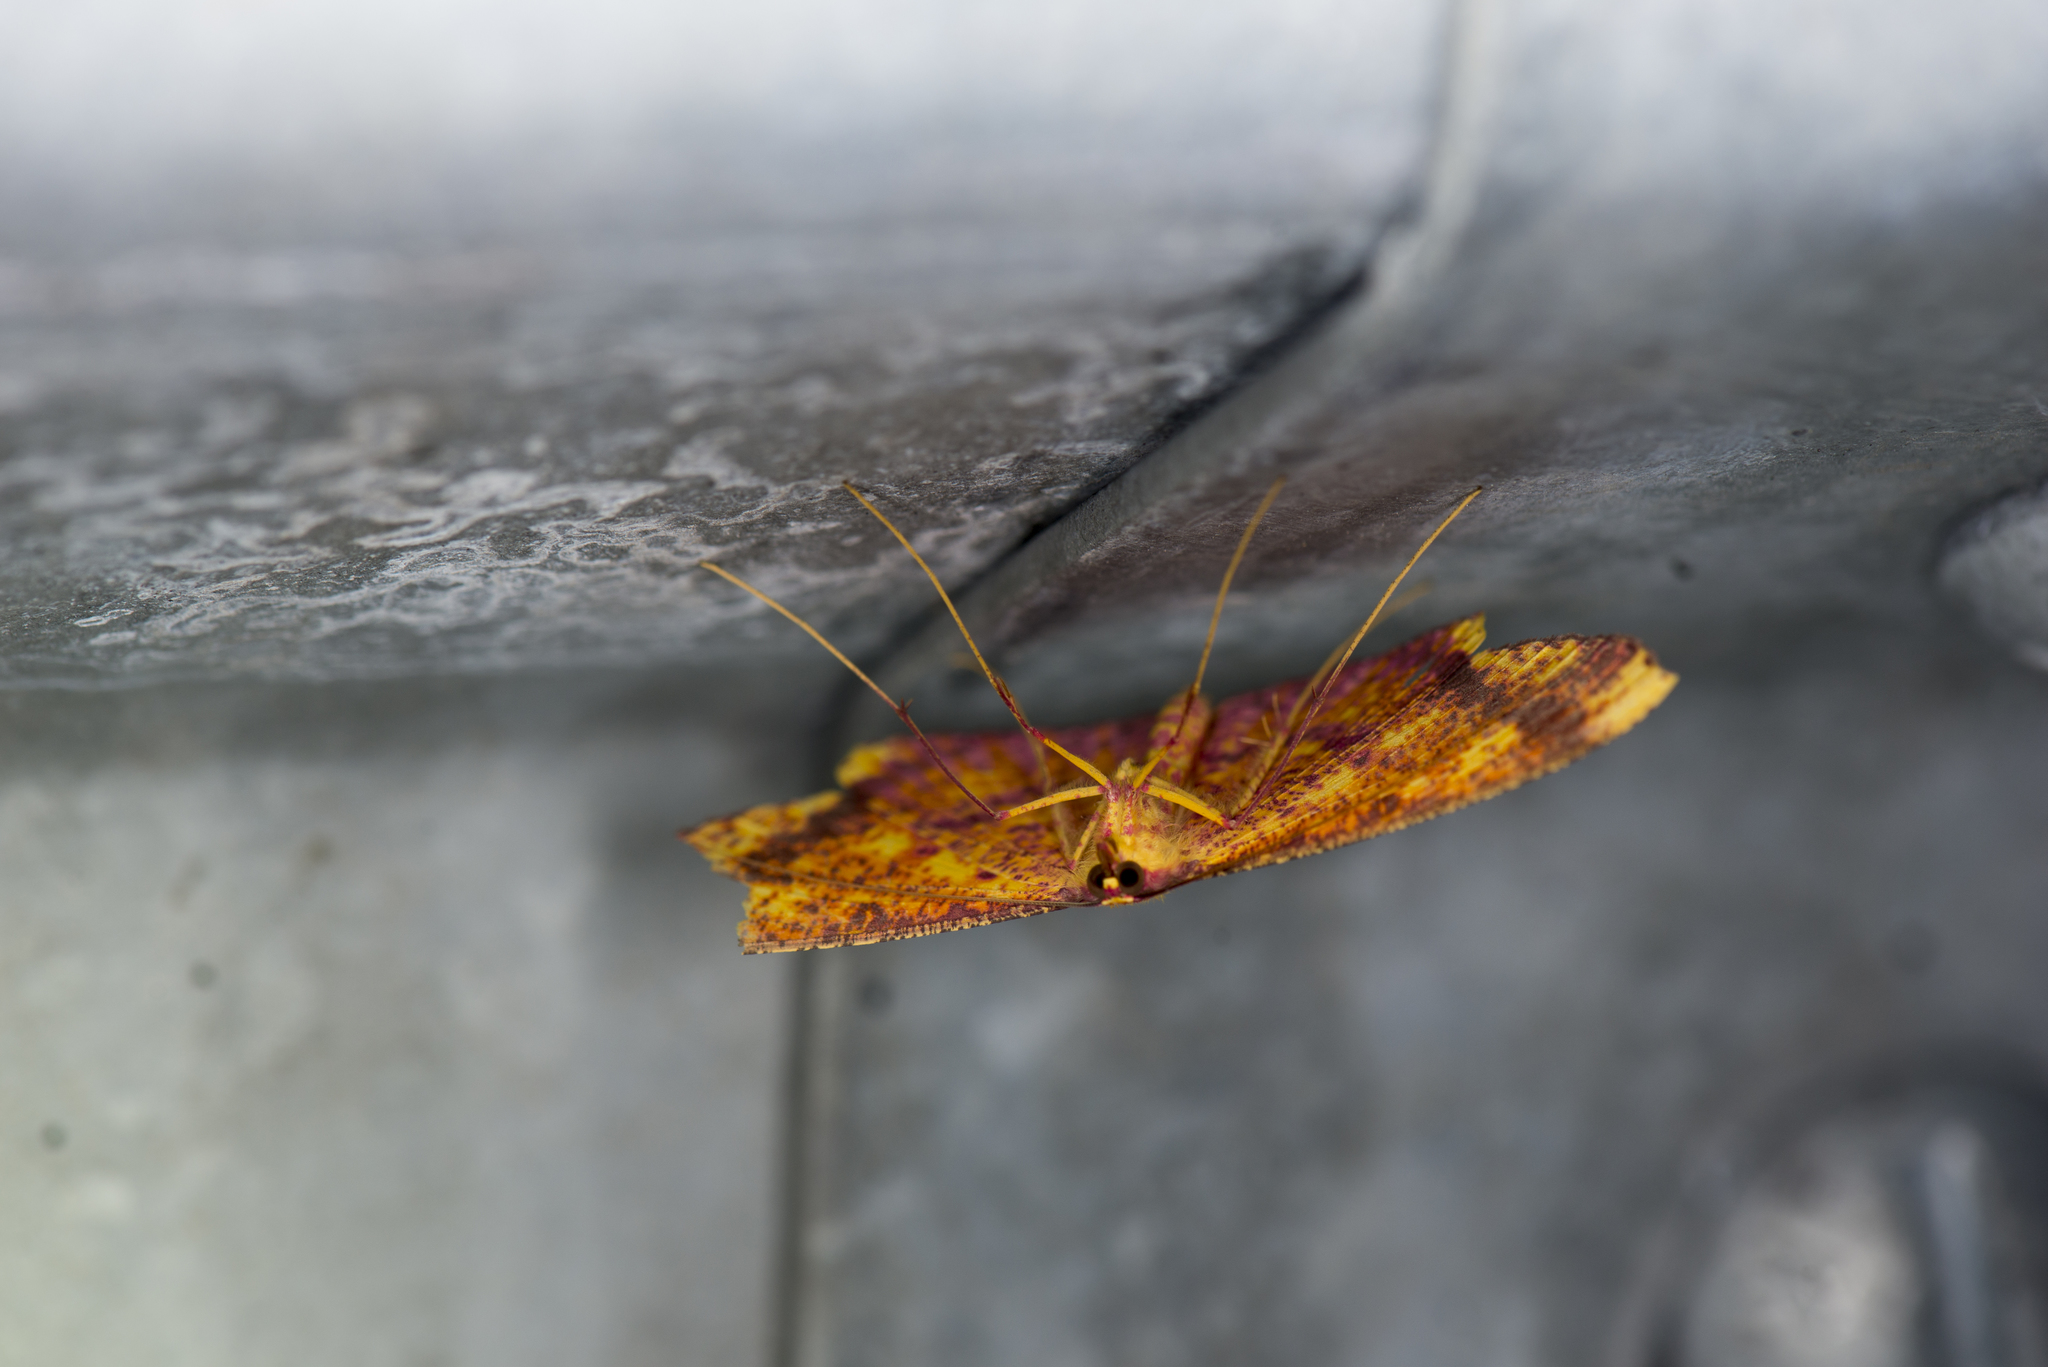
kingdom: Animalia
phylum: Arthropoda
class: Insecta
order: Lepidoptera
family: Geometridae
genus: Eumelea
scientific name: Eumelea ludovicata
